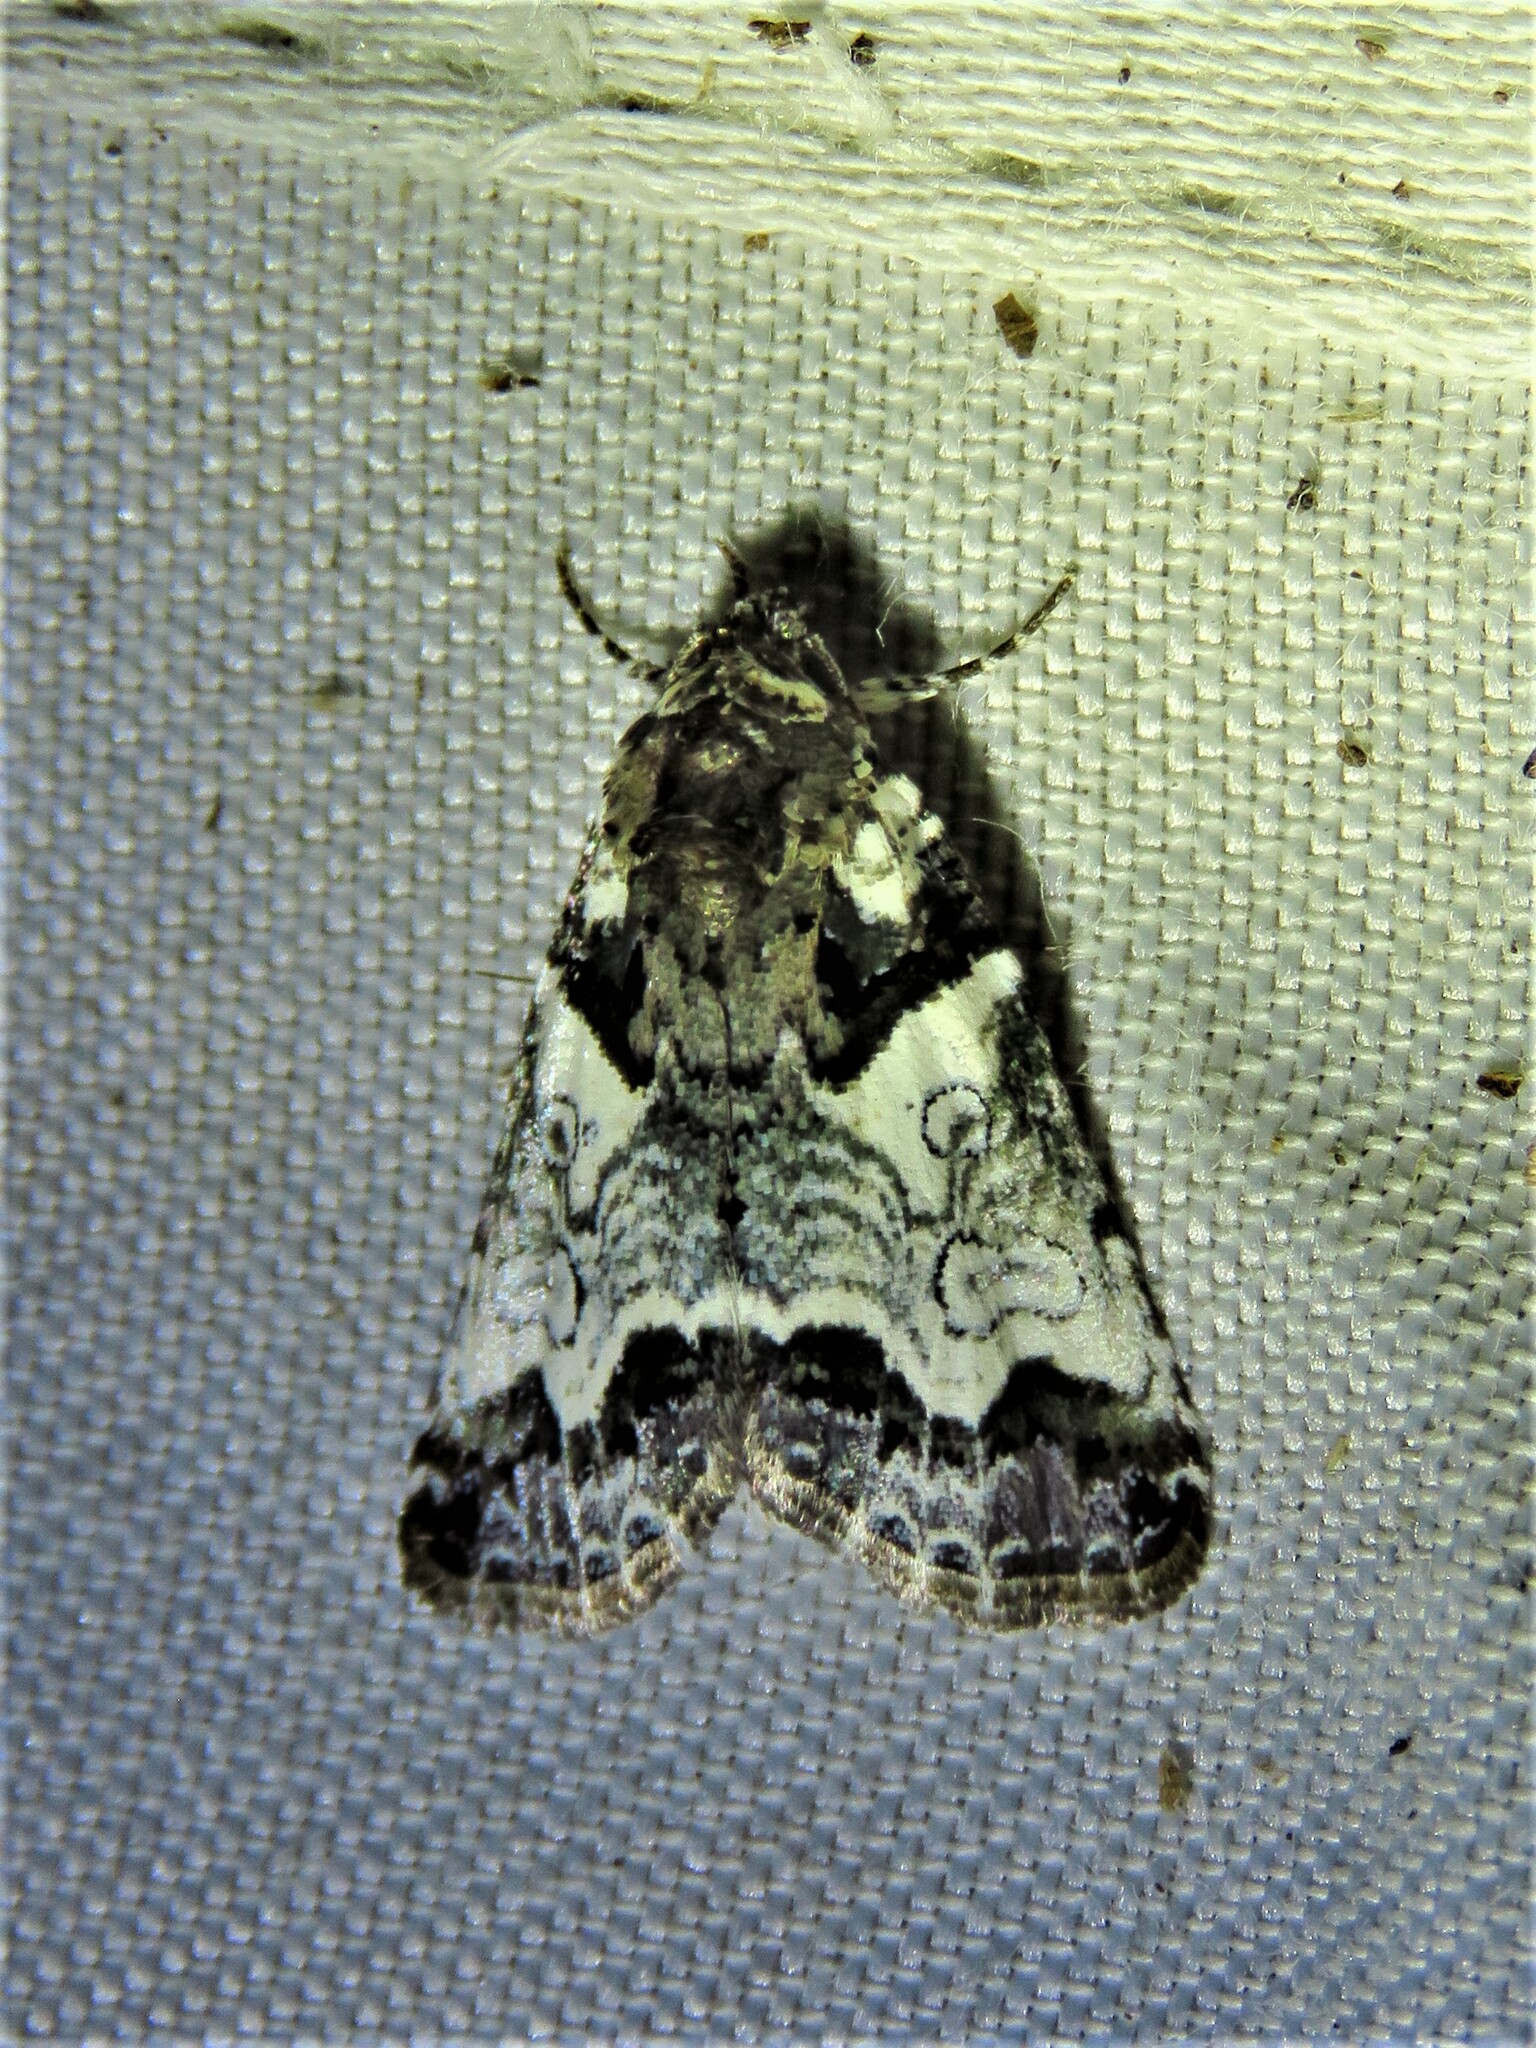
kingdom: Animalia
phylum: Arthropoda
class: Insecta
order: Lepidoptera
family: Noctuidae
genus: Cerma
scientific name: Cerma cerintha
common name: Tufted bird-dropping moth
